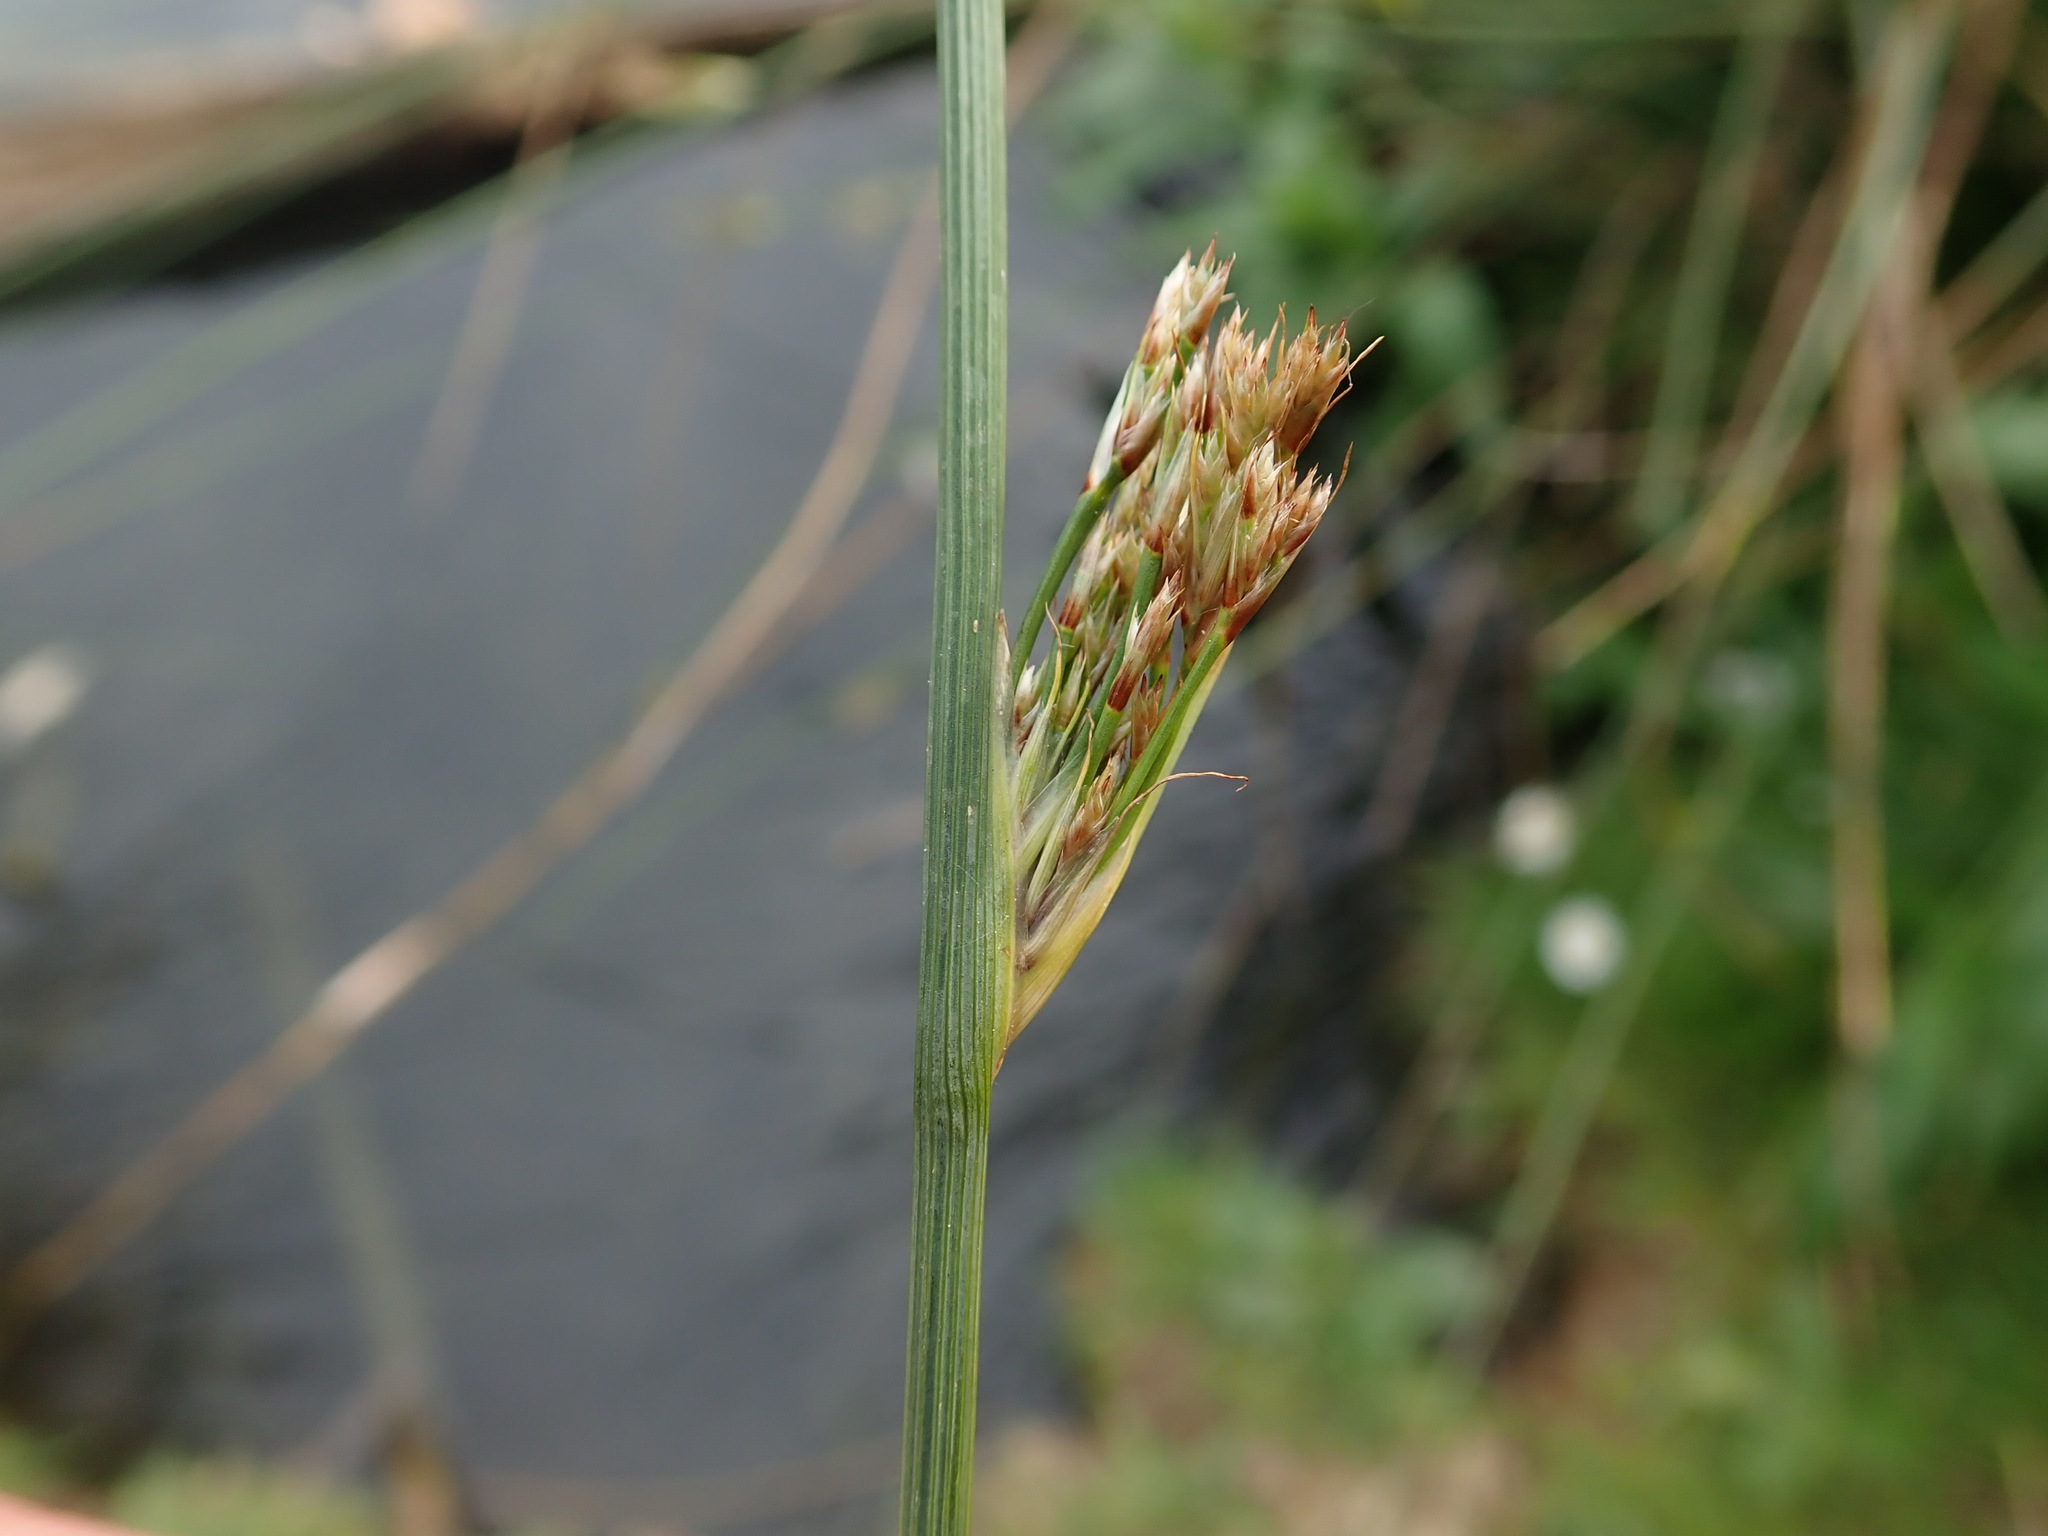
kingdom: Plantae
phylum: Tracheophyta
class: Liliopsida
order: Poales
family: Juncaceae
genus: Juncus
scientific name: Juncus inflexus
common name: Hard rush
